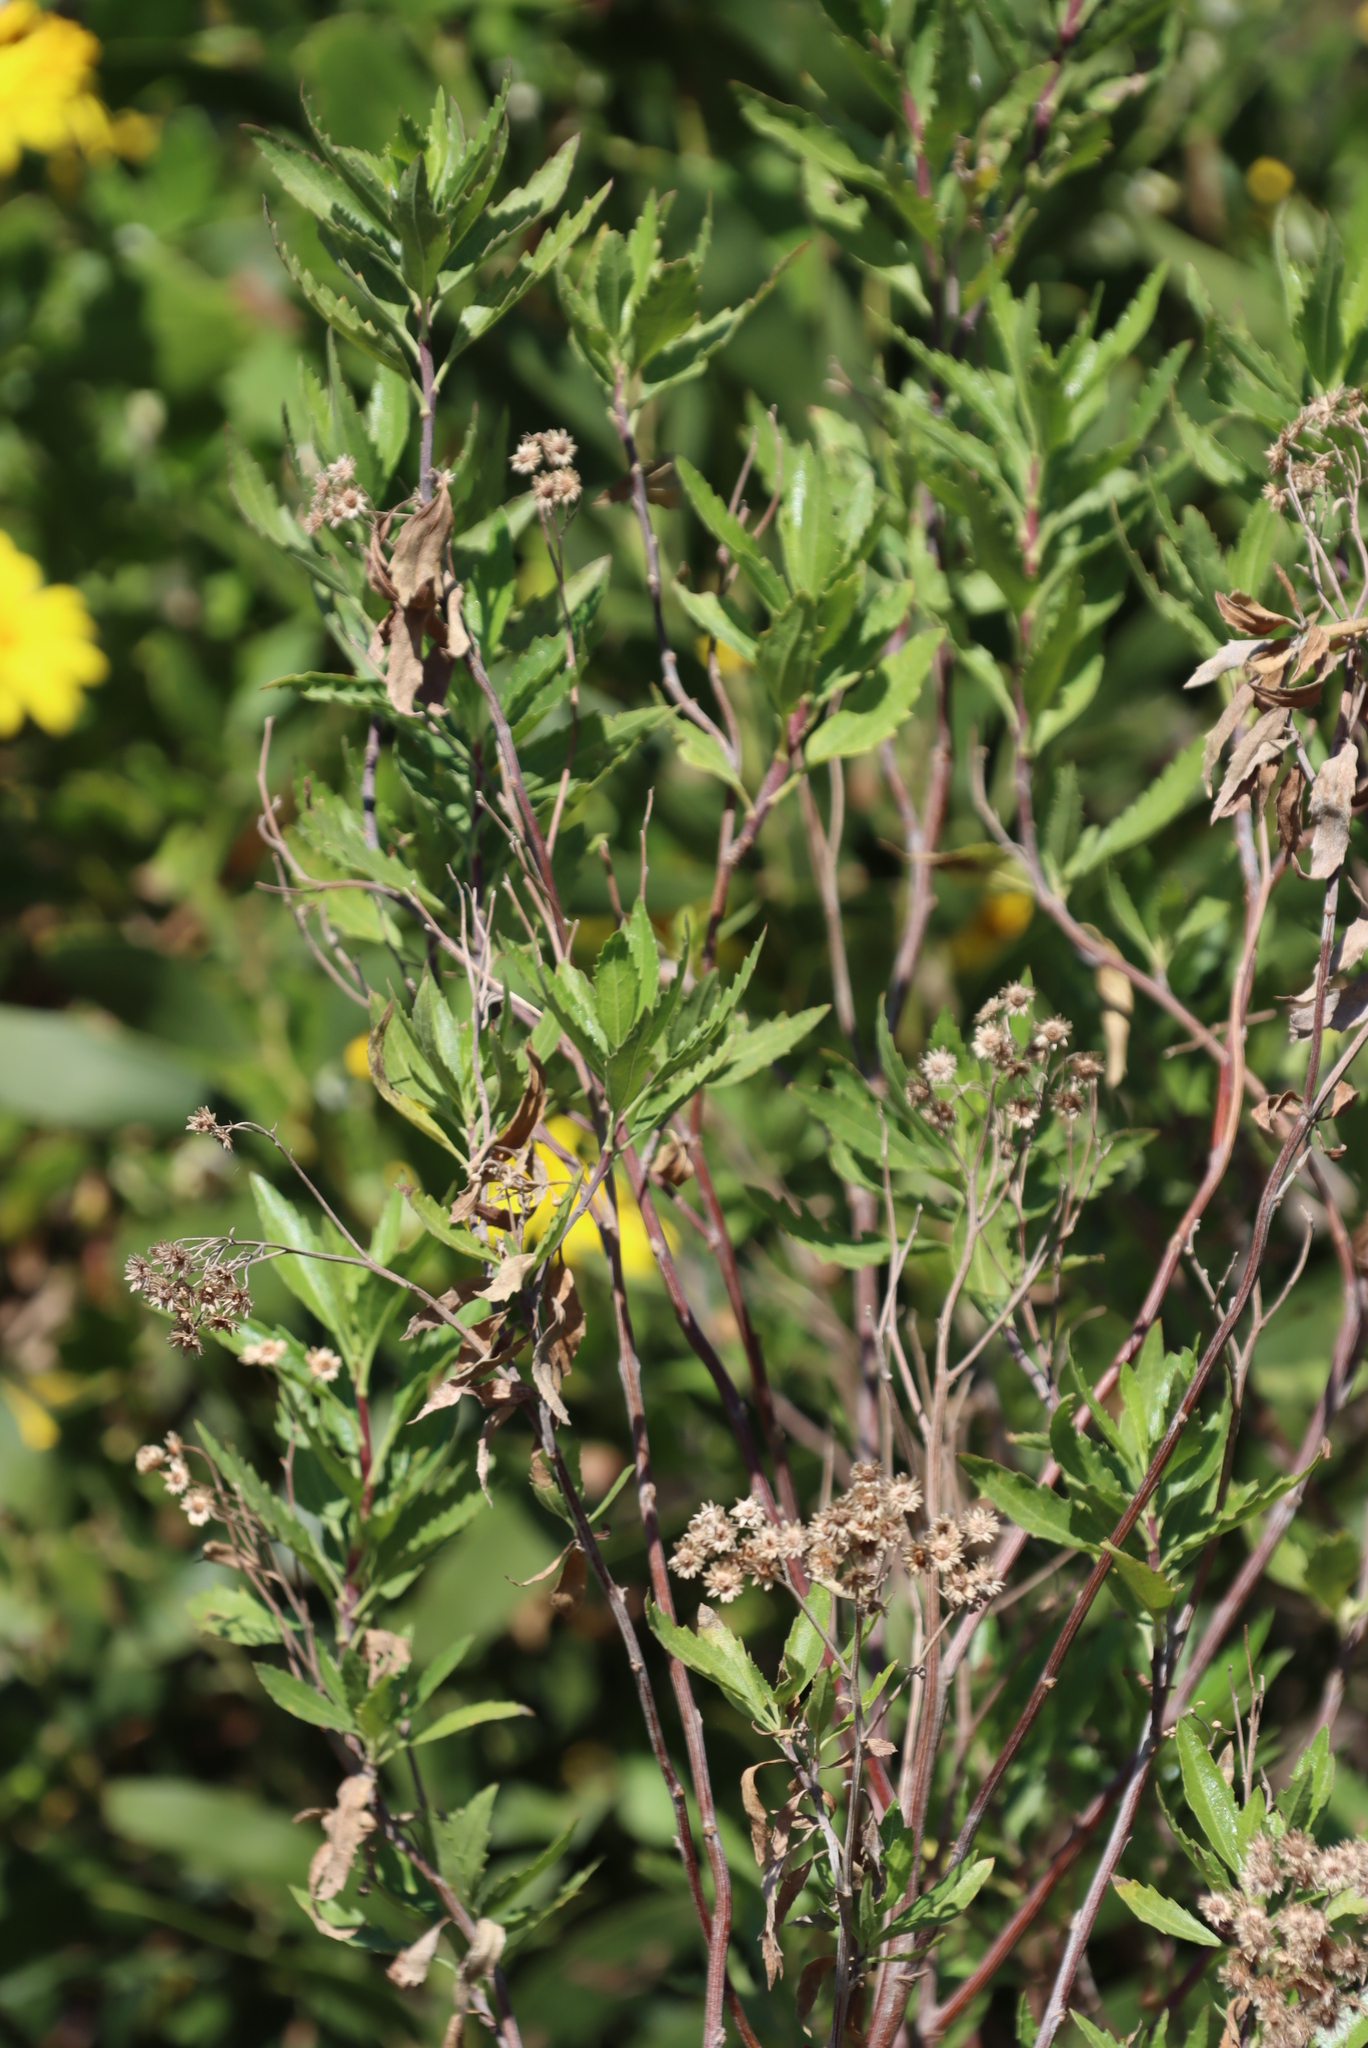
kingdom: Plantae
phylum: Tracheophyta
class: Magnoliopsida
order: Asterales
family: Asteraceae
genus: Nidorella
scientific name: Nidorella ivifolia
